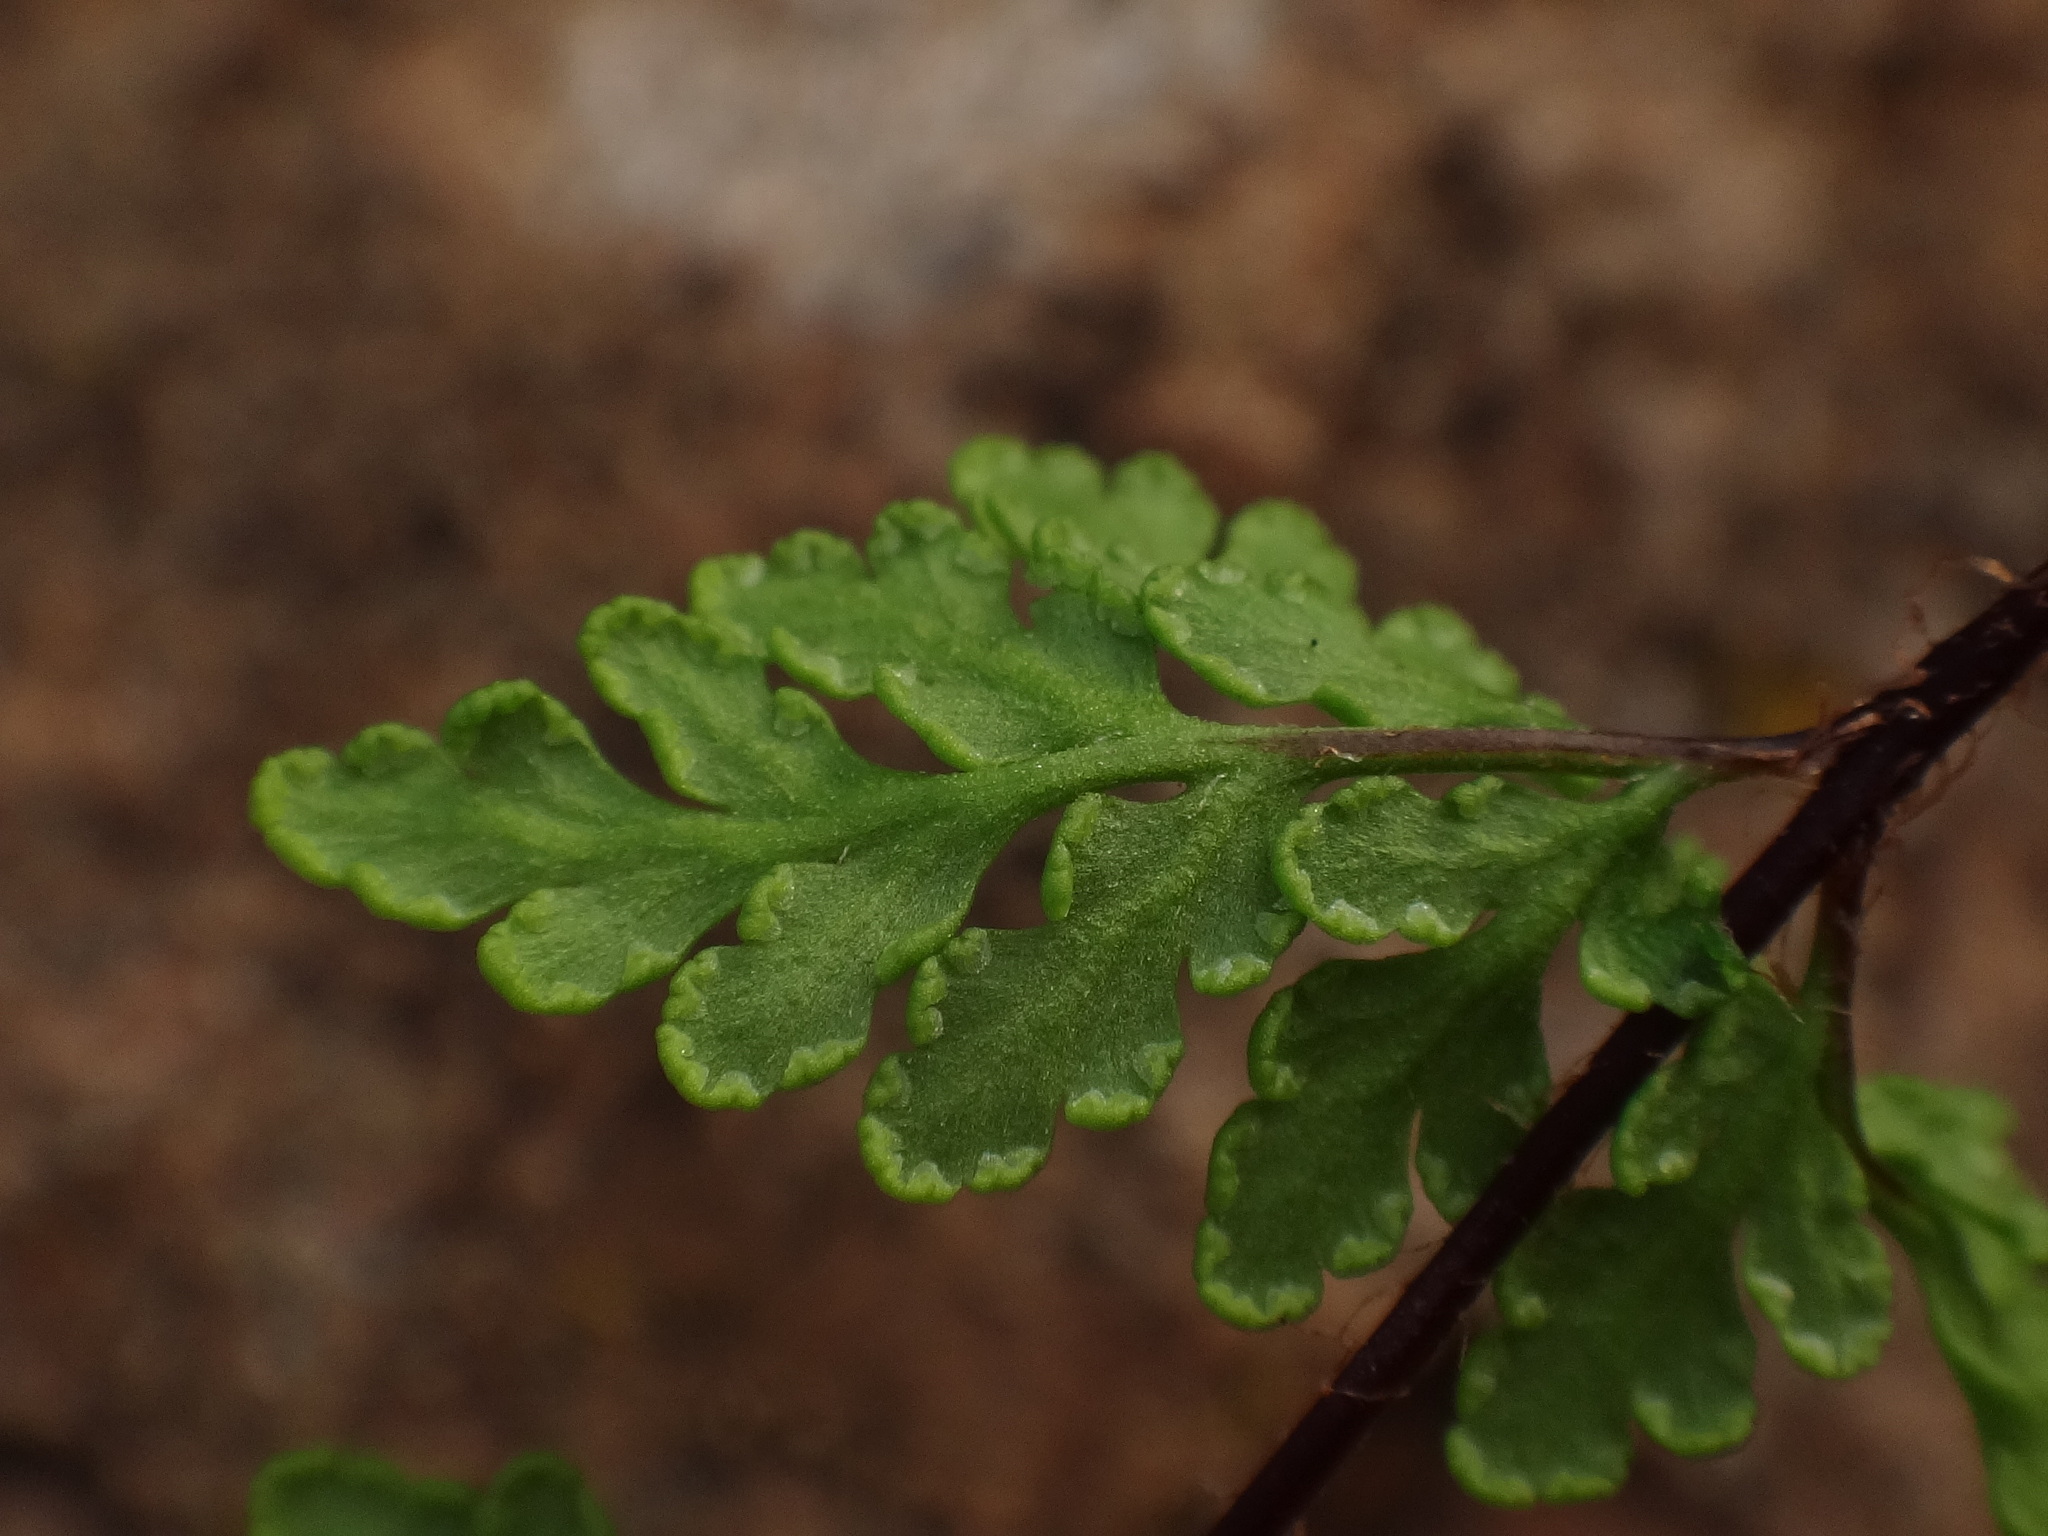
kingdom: Plantae
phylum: Tracheophyta
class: Polypodiopsida
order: Polypodiales
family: Pteridaceae
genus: Oeosporangium
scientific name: Oeosporangium guanchicum
